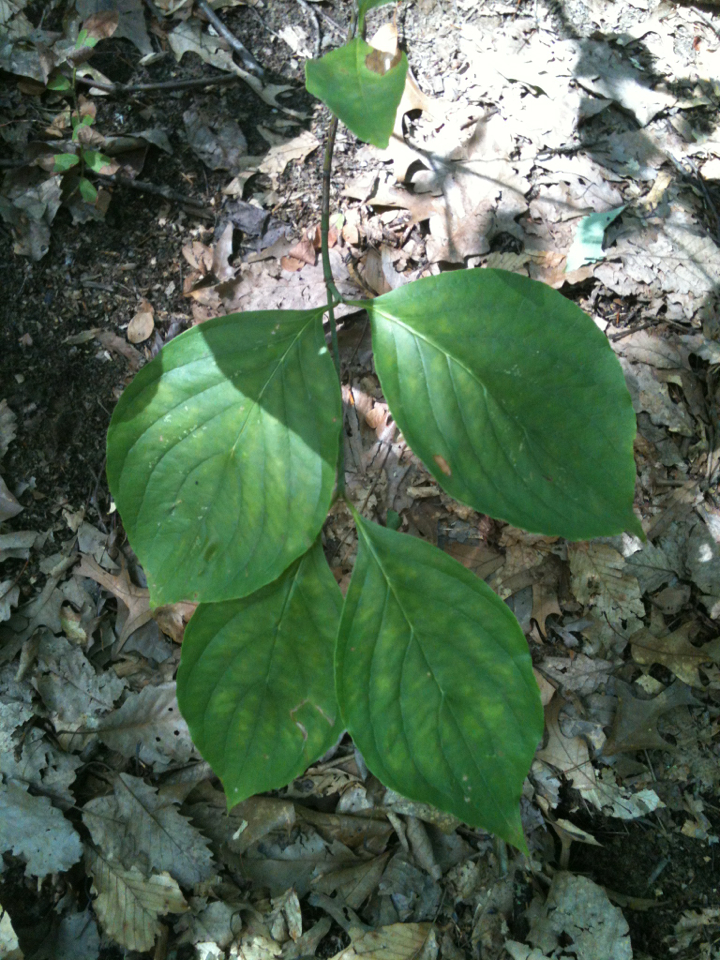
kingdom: Plantae
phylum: Tracheophyta
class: Magnoliopsida
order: Cornales
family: Cornaceae
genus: Cornus
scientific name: Cornus florida
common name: Flowering dogwood
